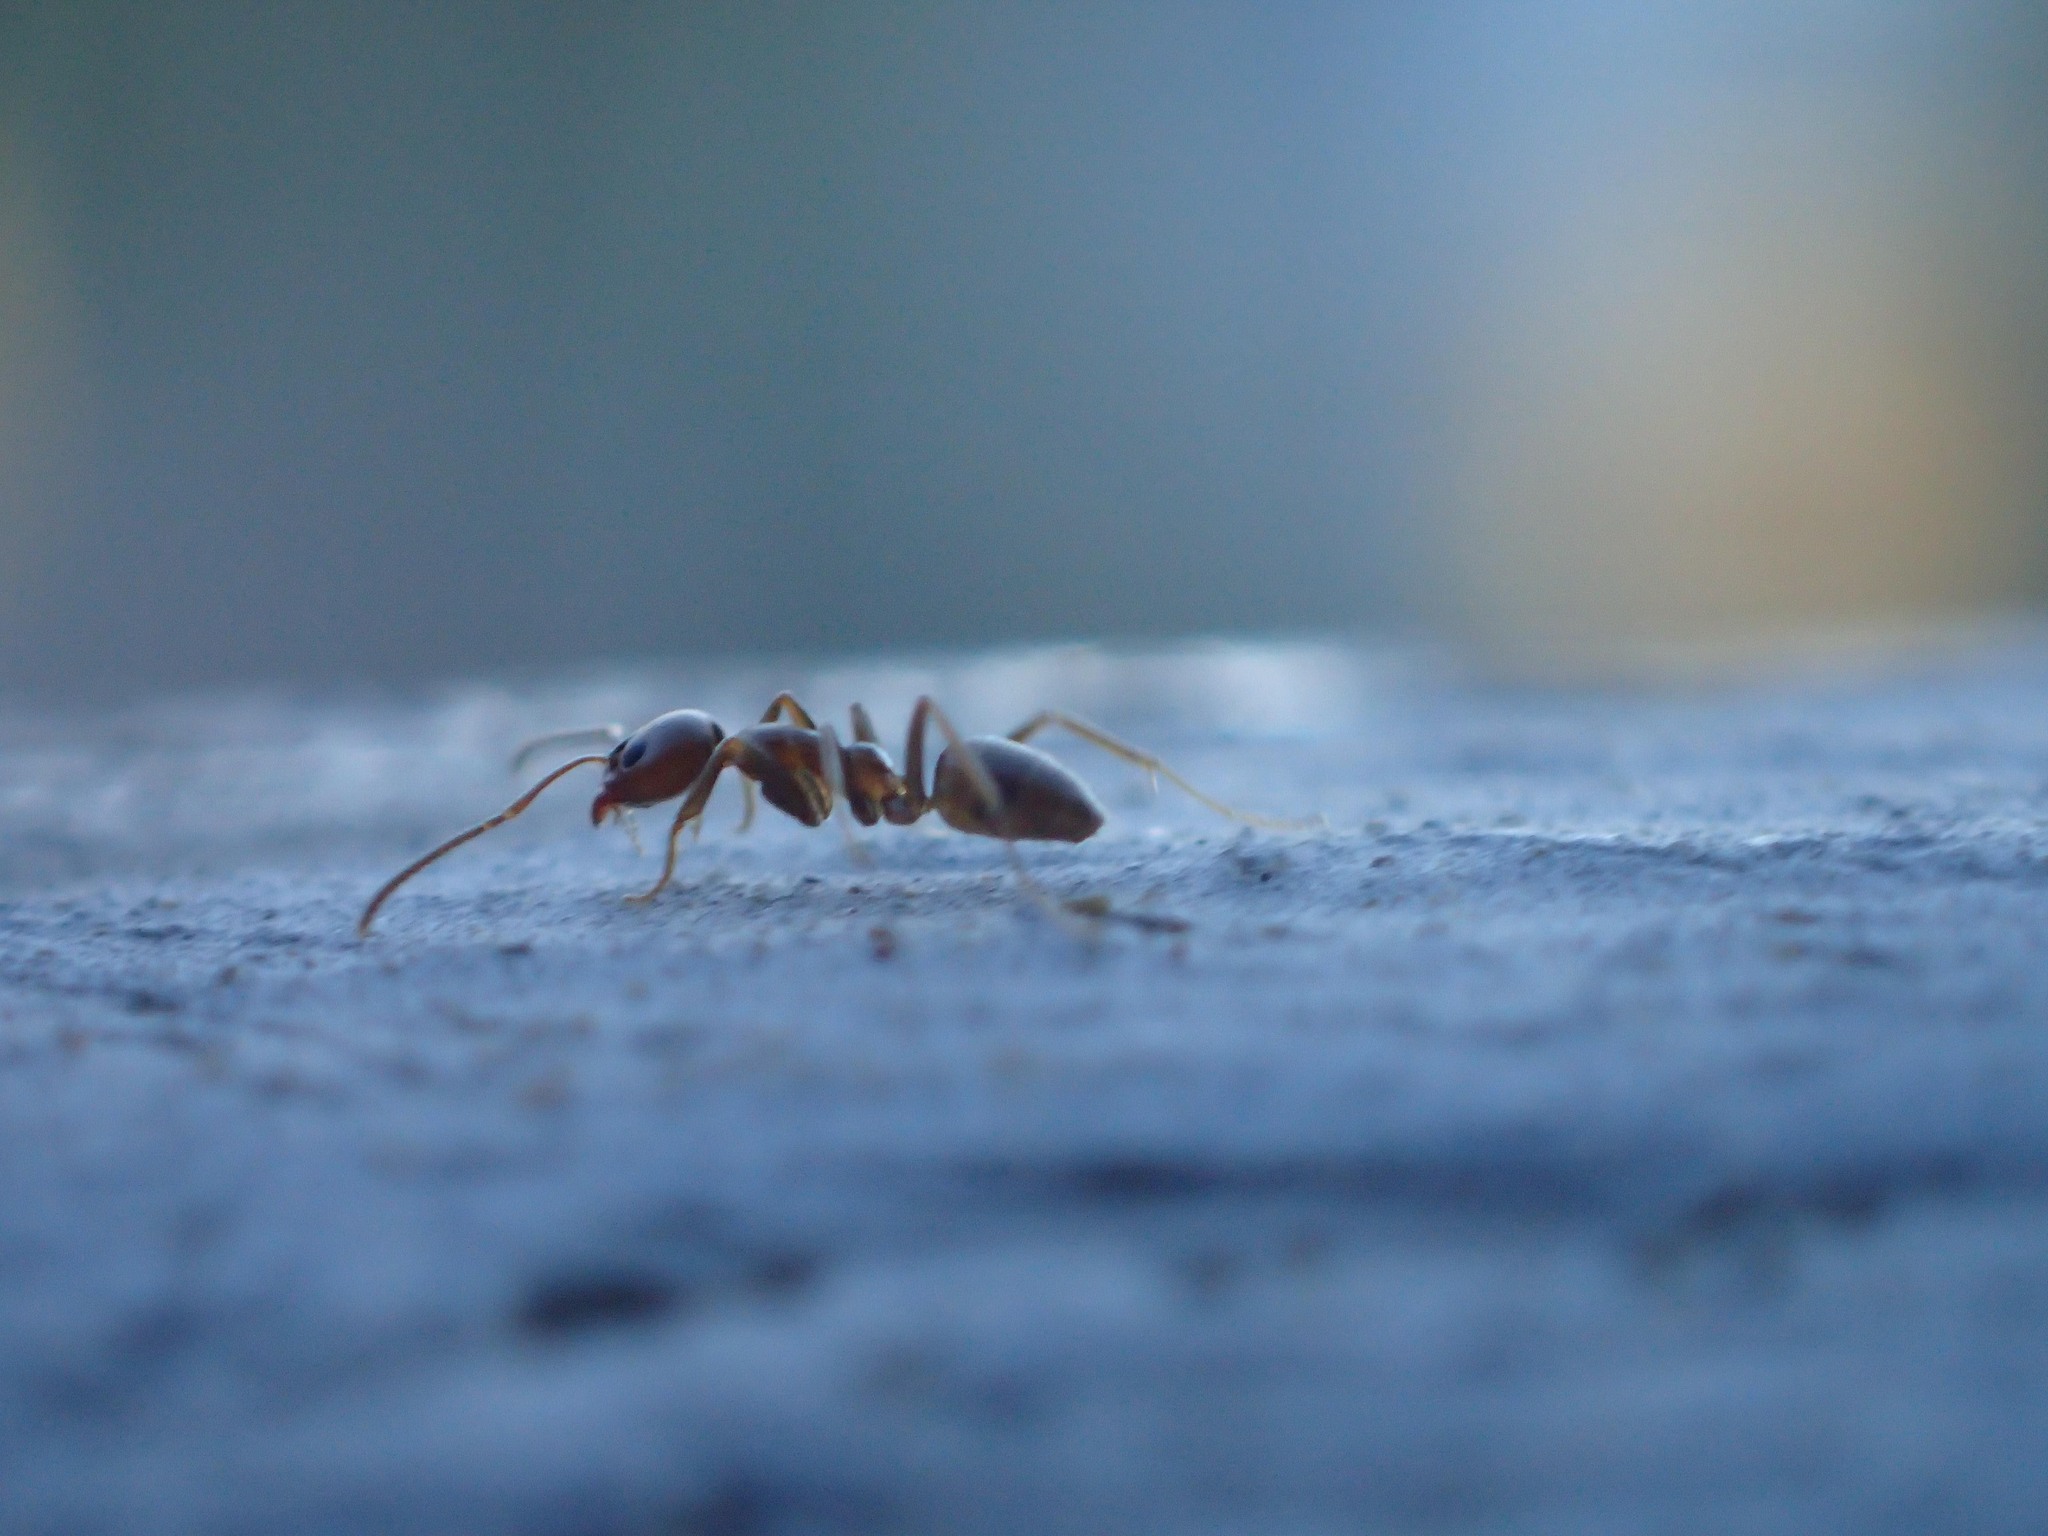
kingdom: Animalia
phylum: Arthropoda
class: Insecta
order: Hymenoptera
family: Formicidae
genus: Linepithema
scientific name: Linepithema humile
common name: Argentine ant
